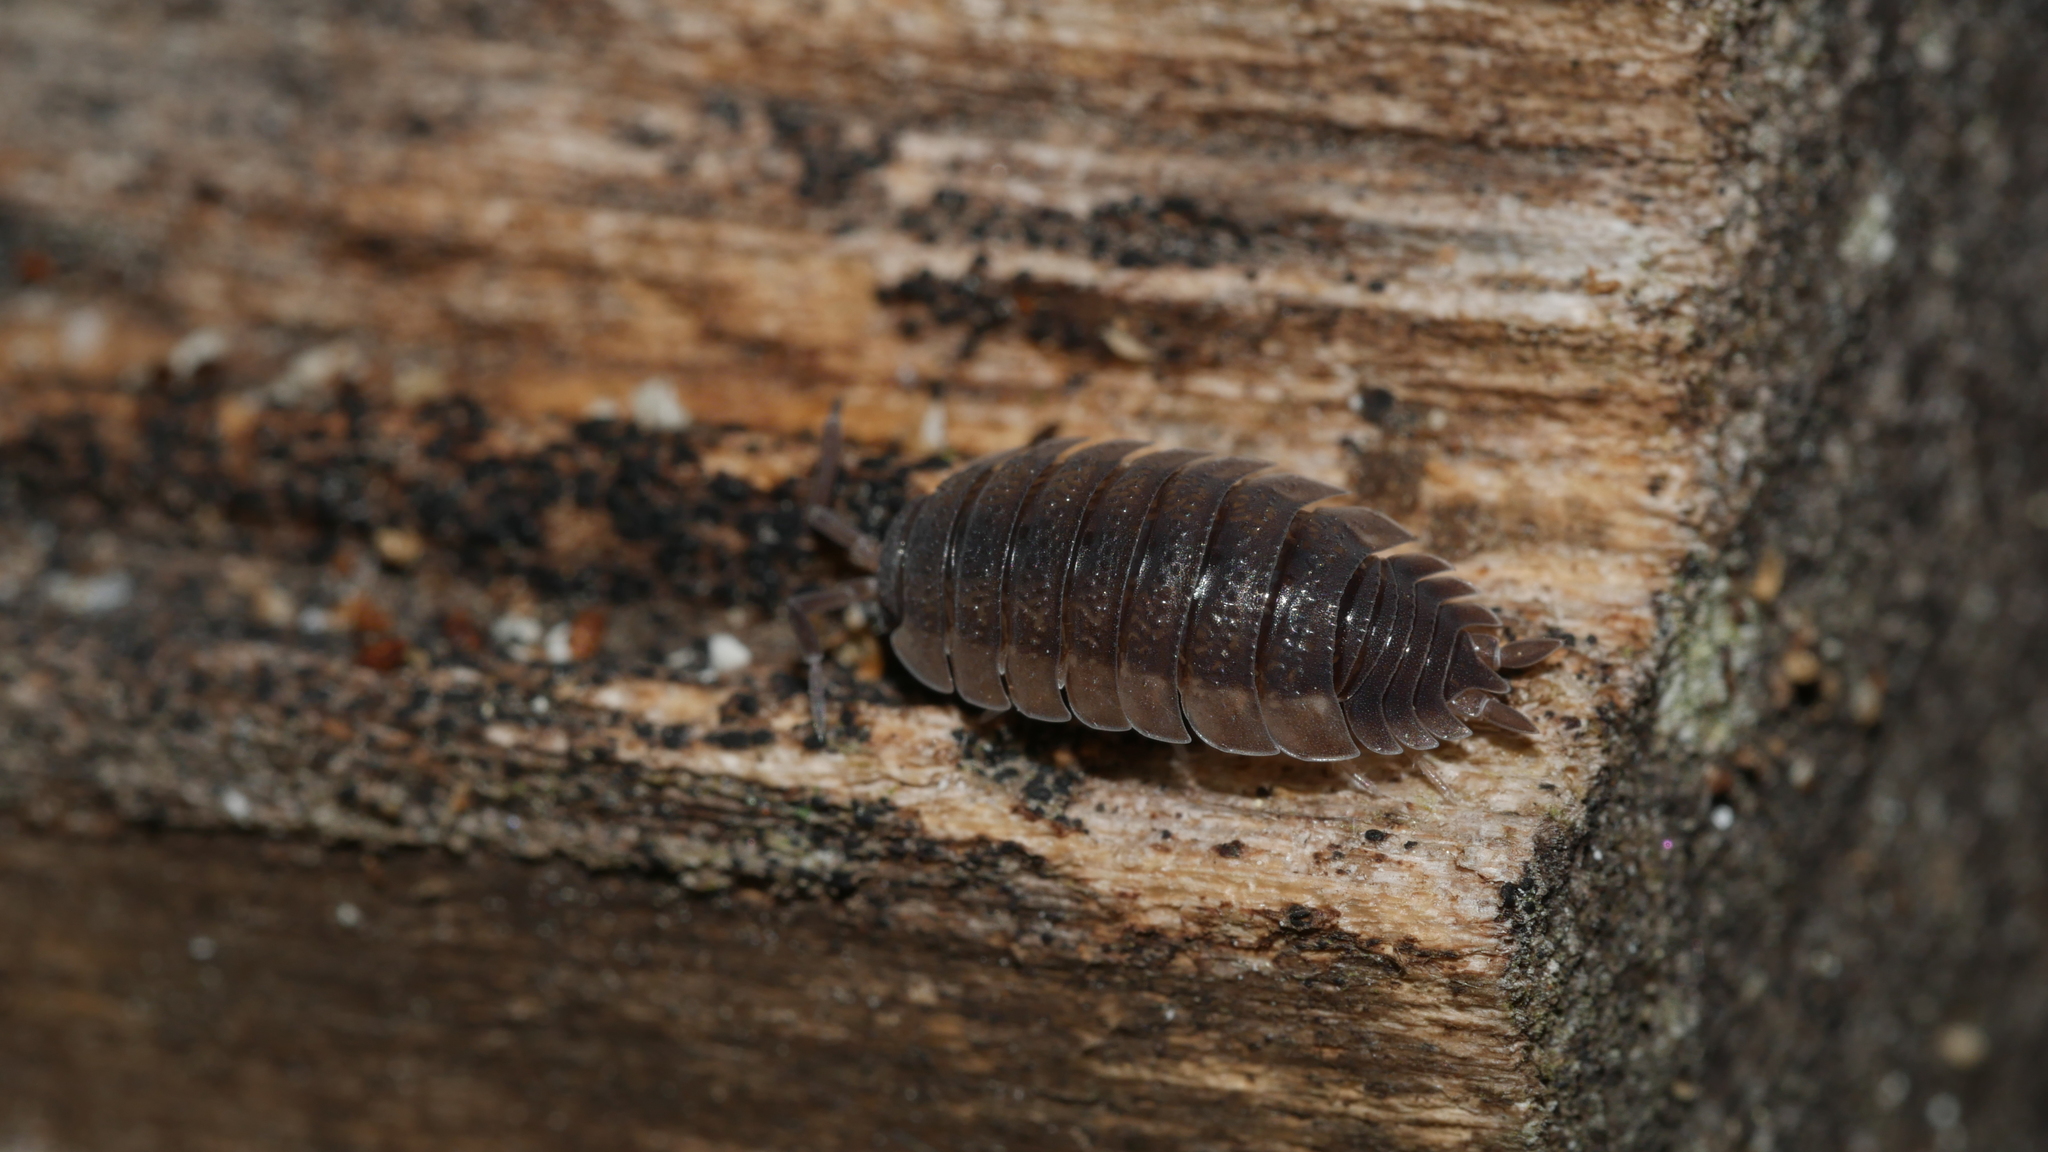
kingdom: Animalia
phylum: Arthropoda
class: Malacostraca
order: Isopoda
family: Porcellionidae
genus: Porcellio
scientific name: Porcellio scaber
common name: Common rough woodlouse
